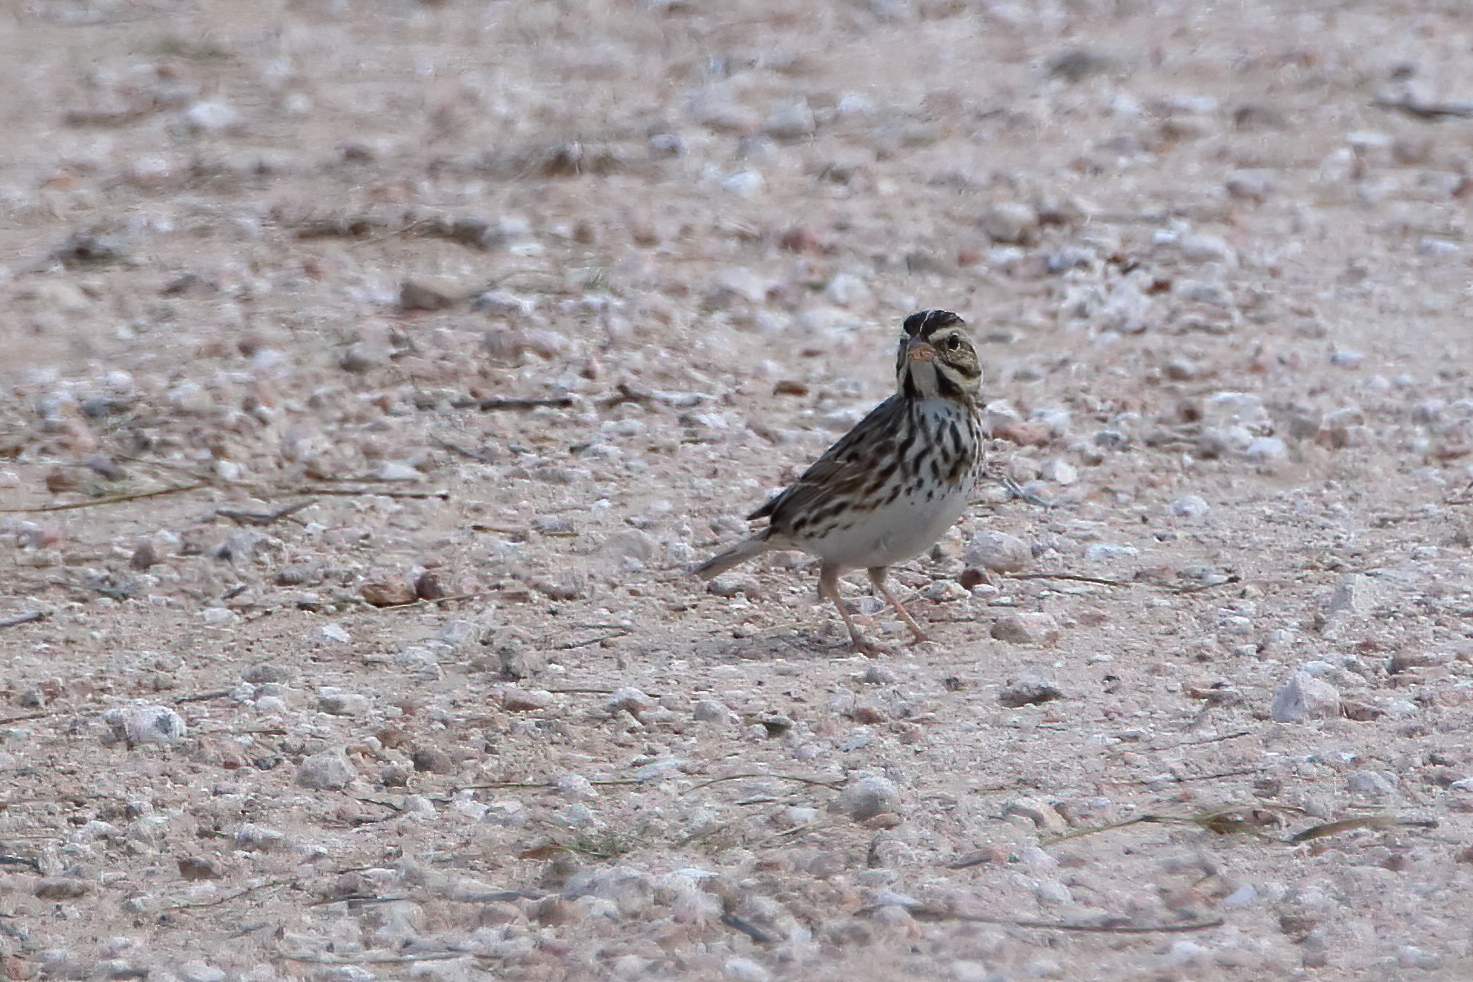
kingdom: Animalia
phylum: Chordata
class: Aves
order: Passeriformes
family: Passerellidae
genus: Passerculus
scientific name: Passerculus sandwichensis
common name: Savannah sparrow
